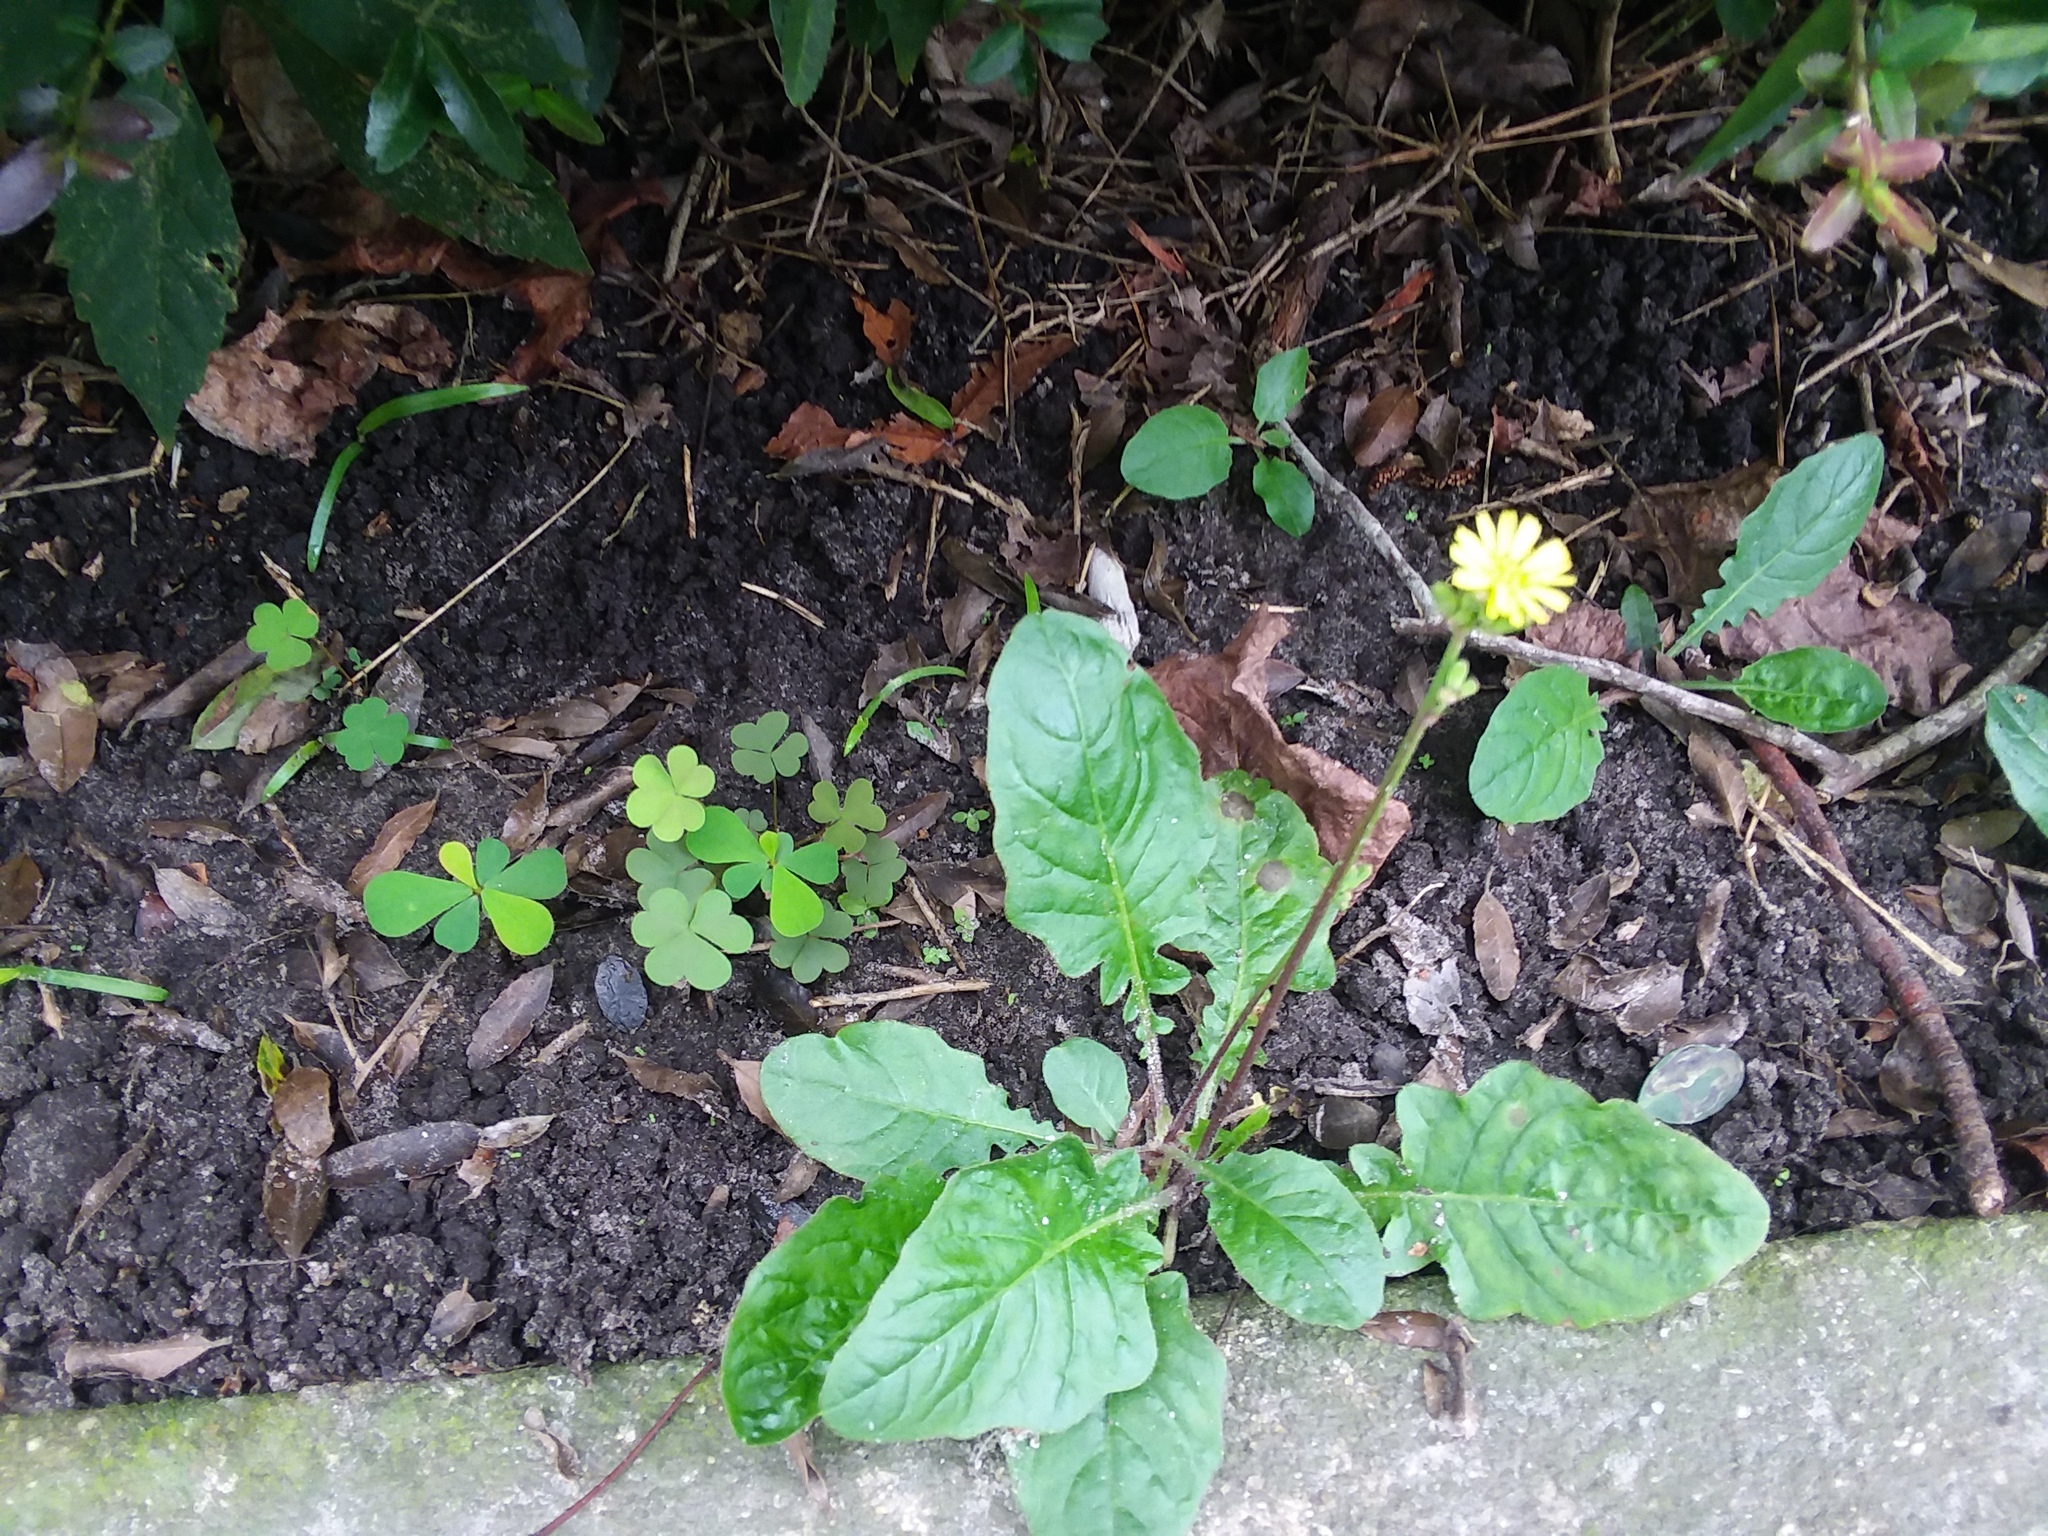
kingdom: Plantae
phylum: Tracheophyta
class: Magnoliopsida
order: Asterales
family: Asteraceae
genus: Youngia
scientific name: Youngia japonica
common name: Oriental false hawksbeard
